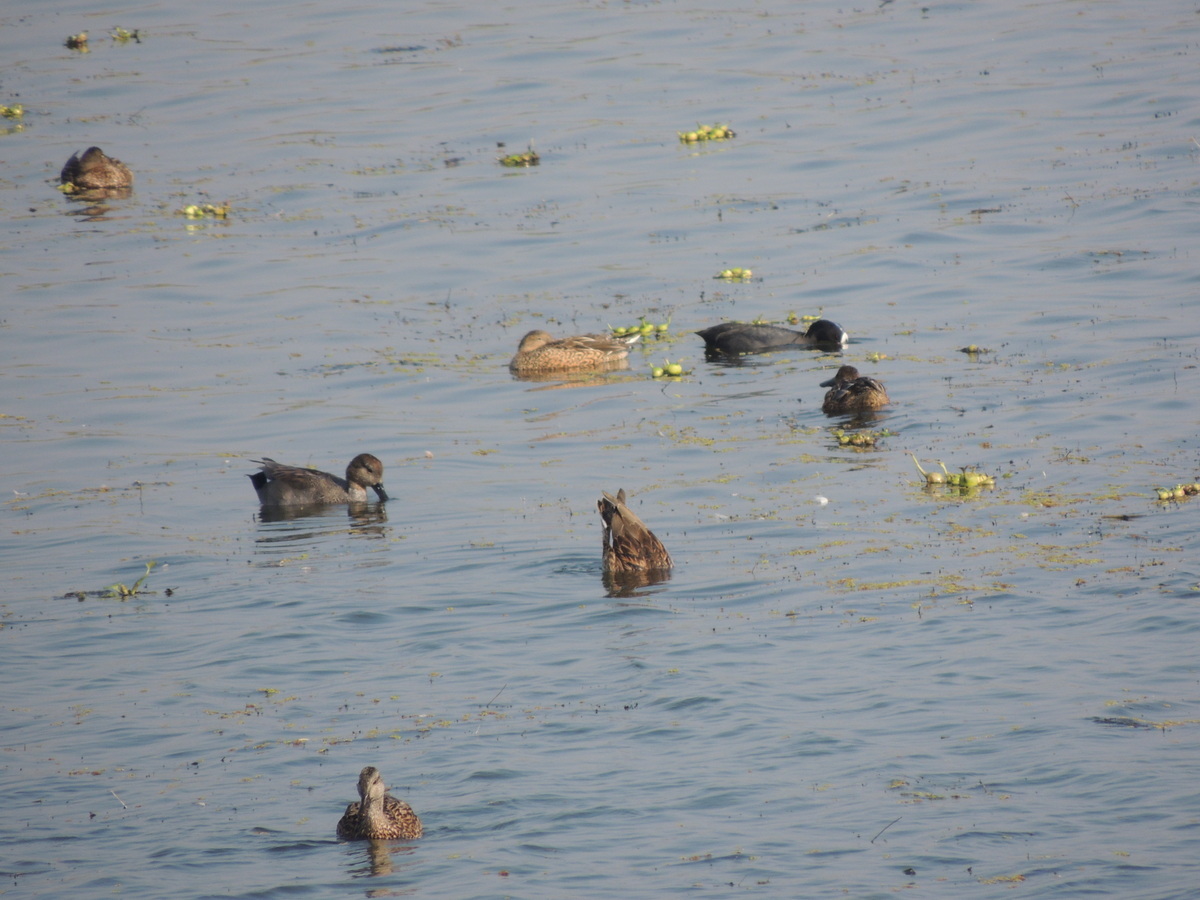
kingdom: Animalia
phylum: Chordata
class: Aves
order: Anseriformes
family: Anatidae
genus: Mareca
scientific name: Mareca strepera
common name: Gadwall
